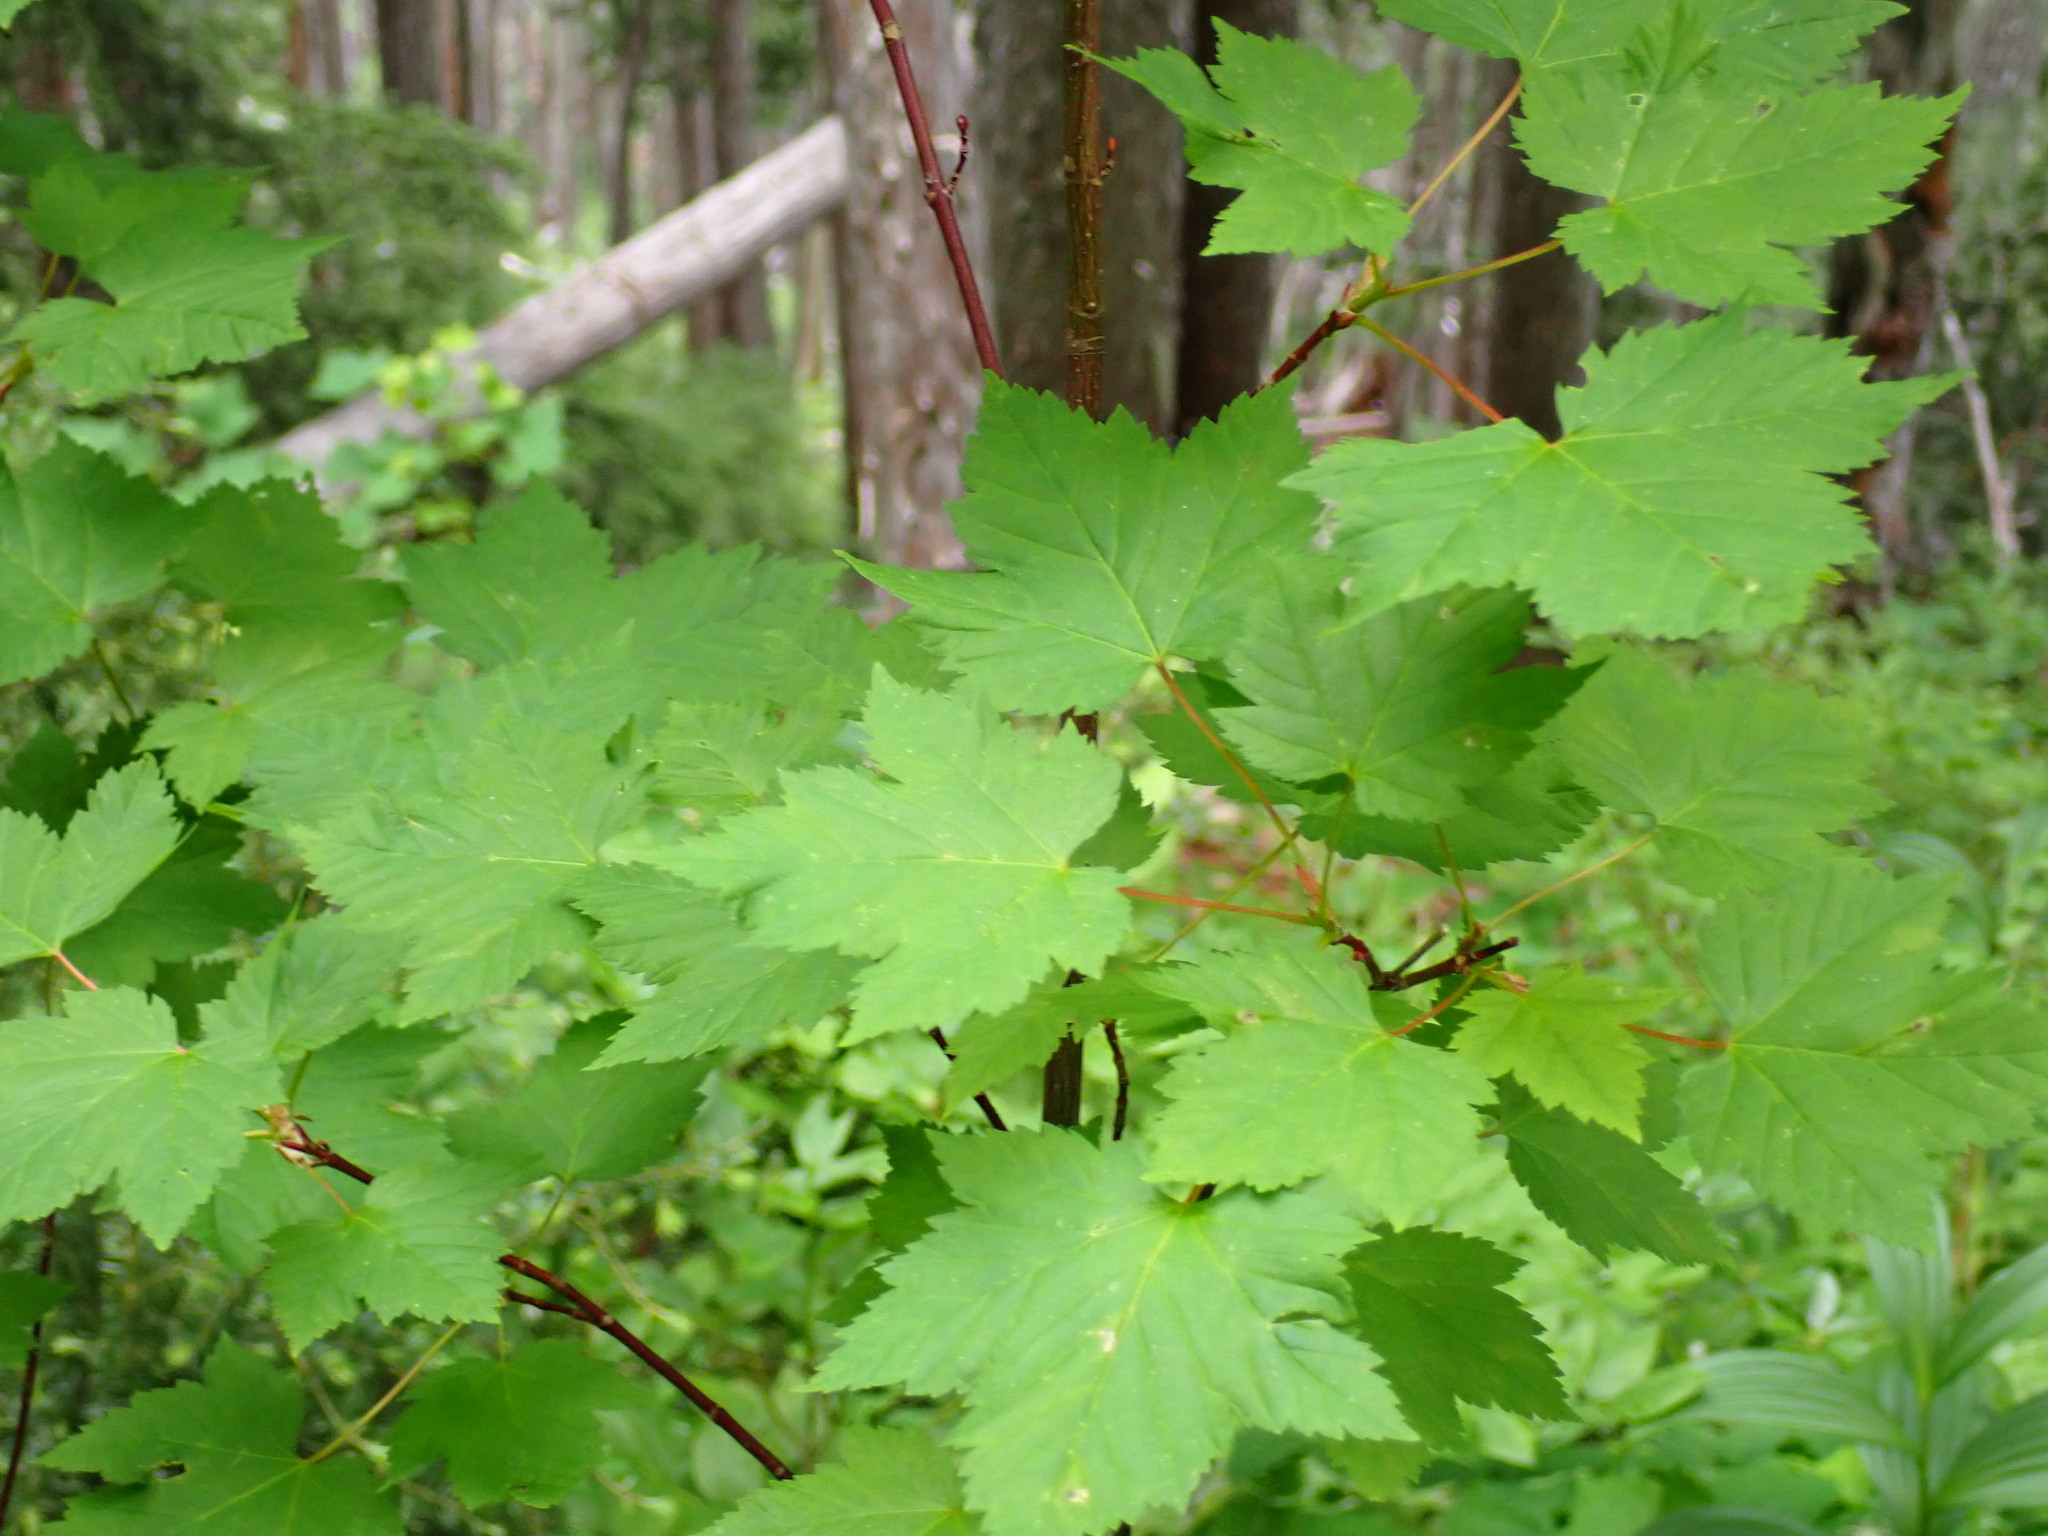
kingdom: Plantae
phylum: Tracheophyta
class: Magnoliopsida
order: Sapindales
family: Sapindaceae
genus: Acer
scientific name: Acer glabrum
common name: Rocky mountain maple
